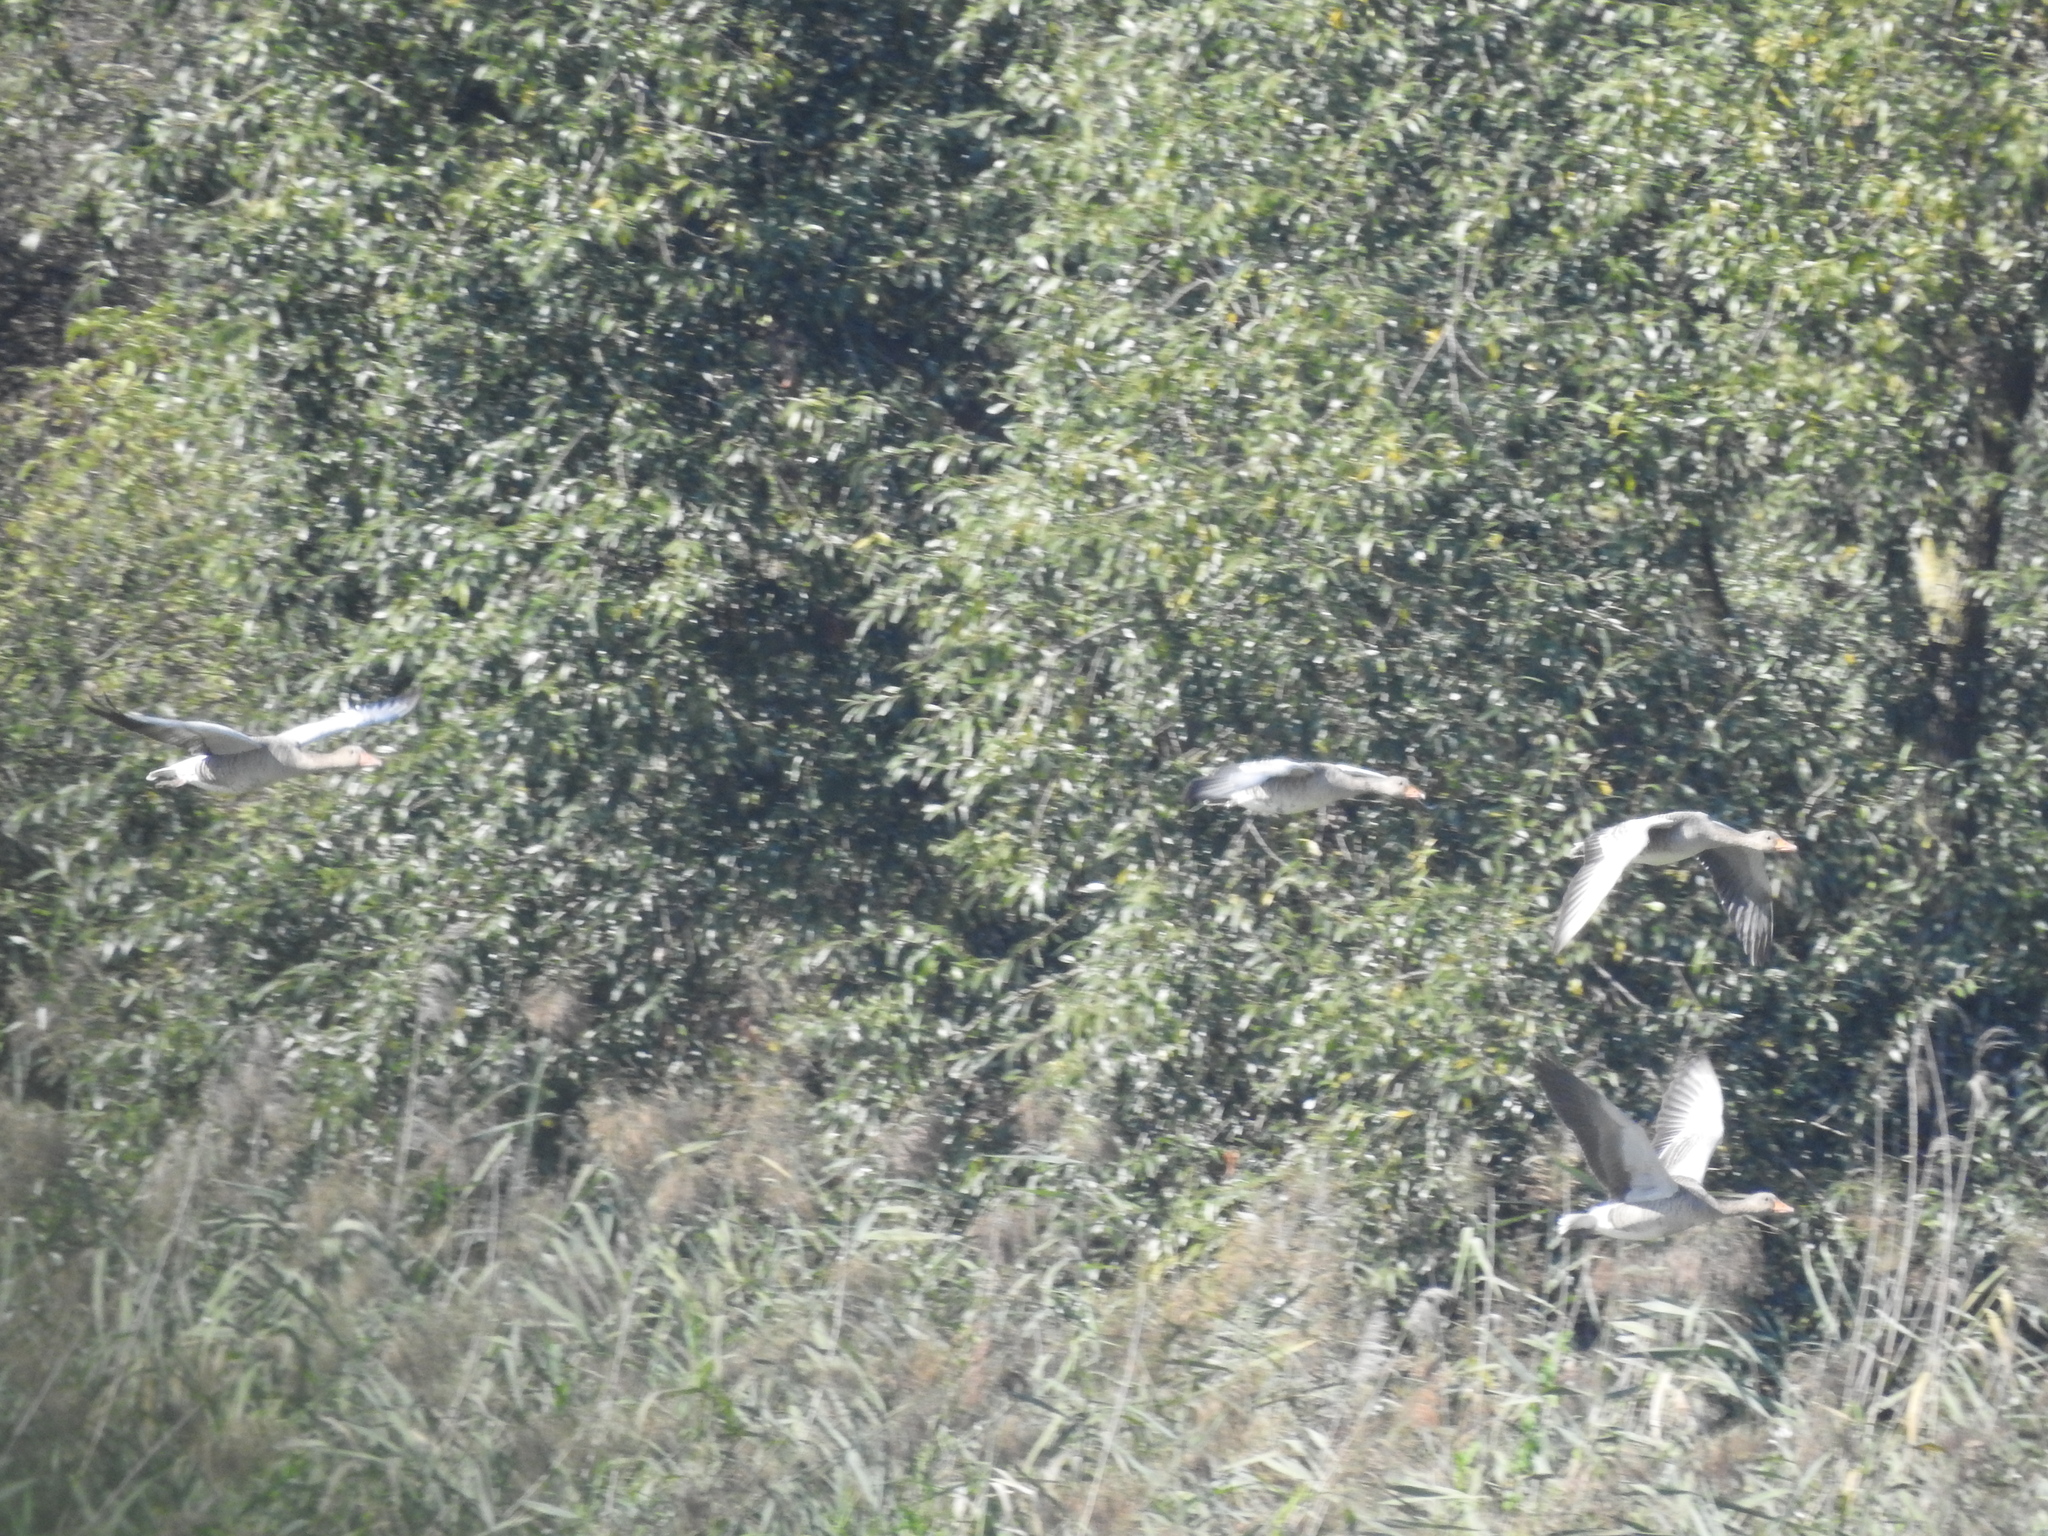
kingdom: Animalia
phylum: Chordata
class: Aves
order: Anseriformes
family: Anatidae
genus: Anser
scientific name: Anser anser
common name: Greylag goose
